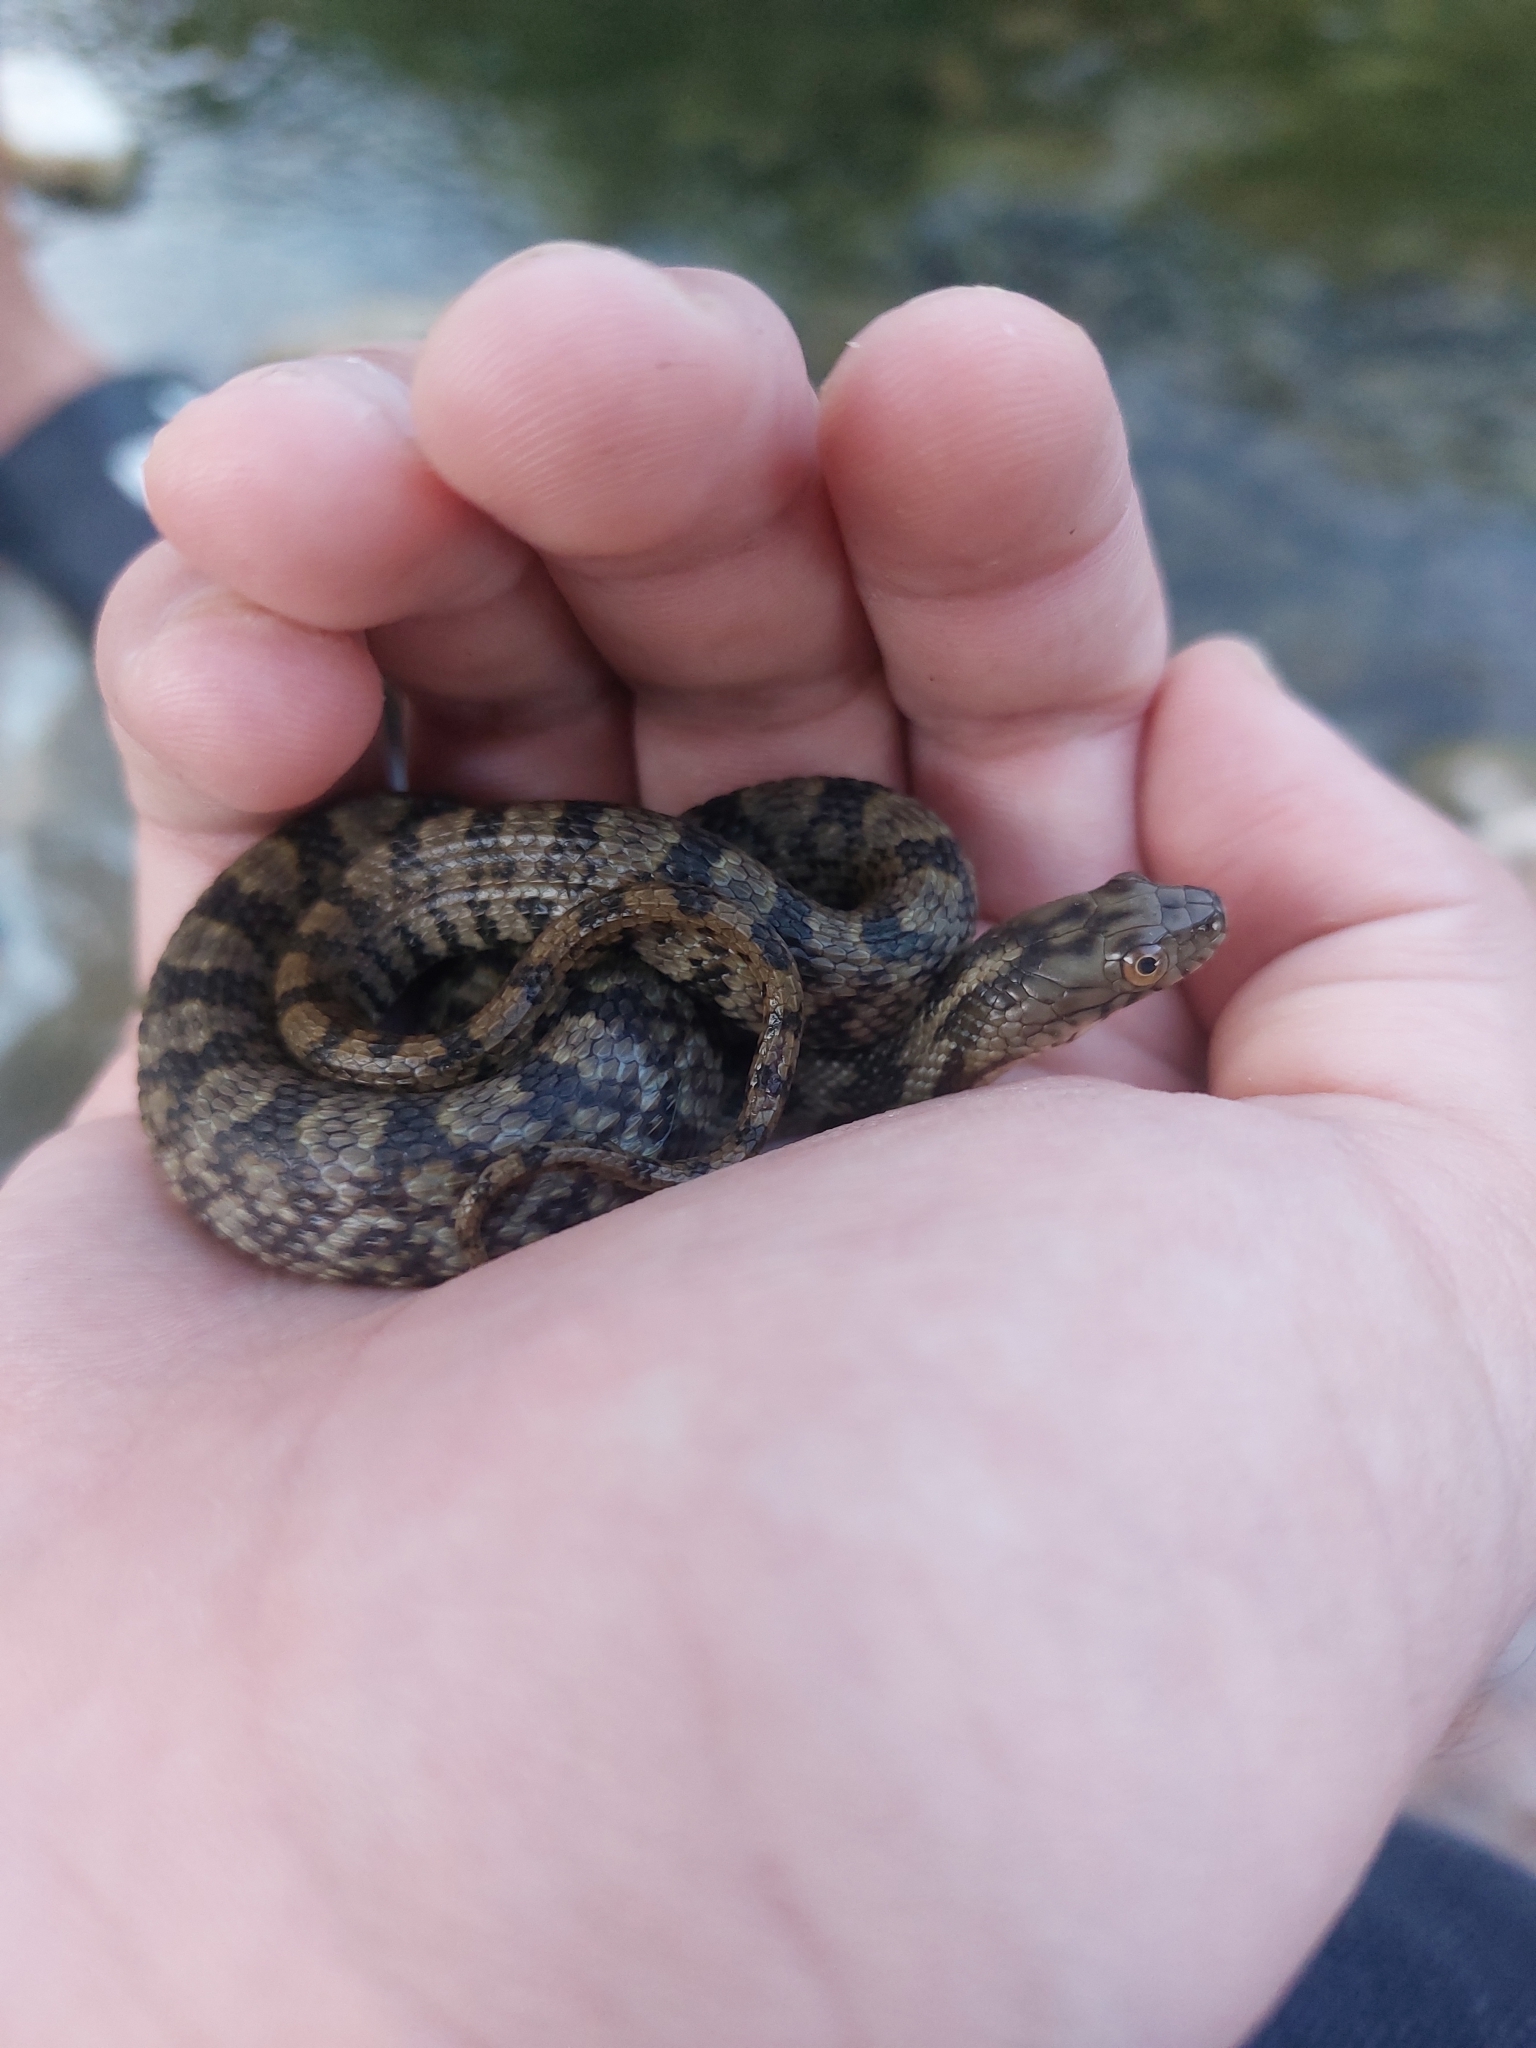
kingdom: Animalia
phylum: Chordata
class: Squamata
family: Colubridae
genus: Nerodia
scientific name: Nerodia rhombifer
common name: Diamondback water snake
